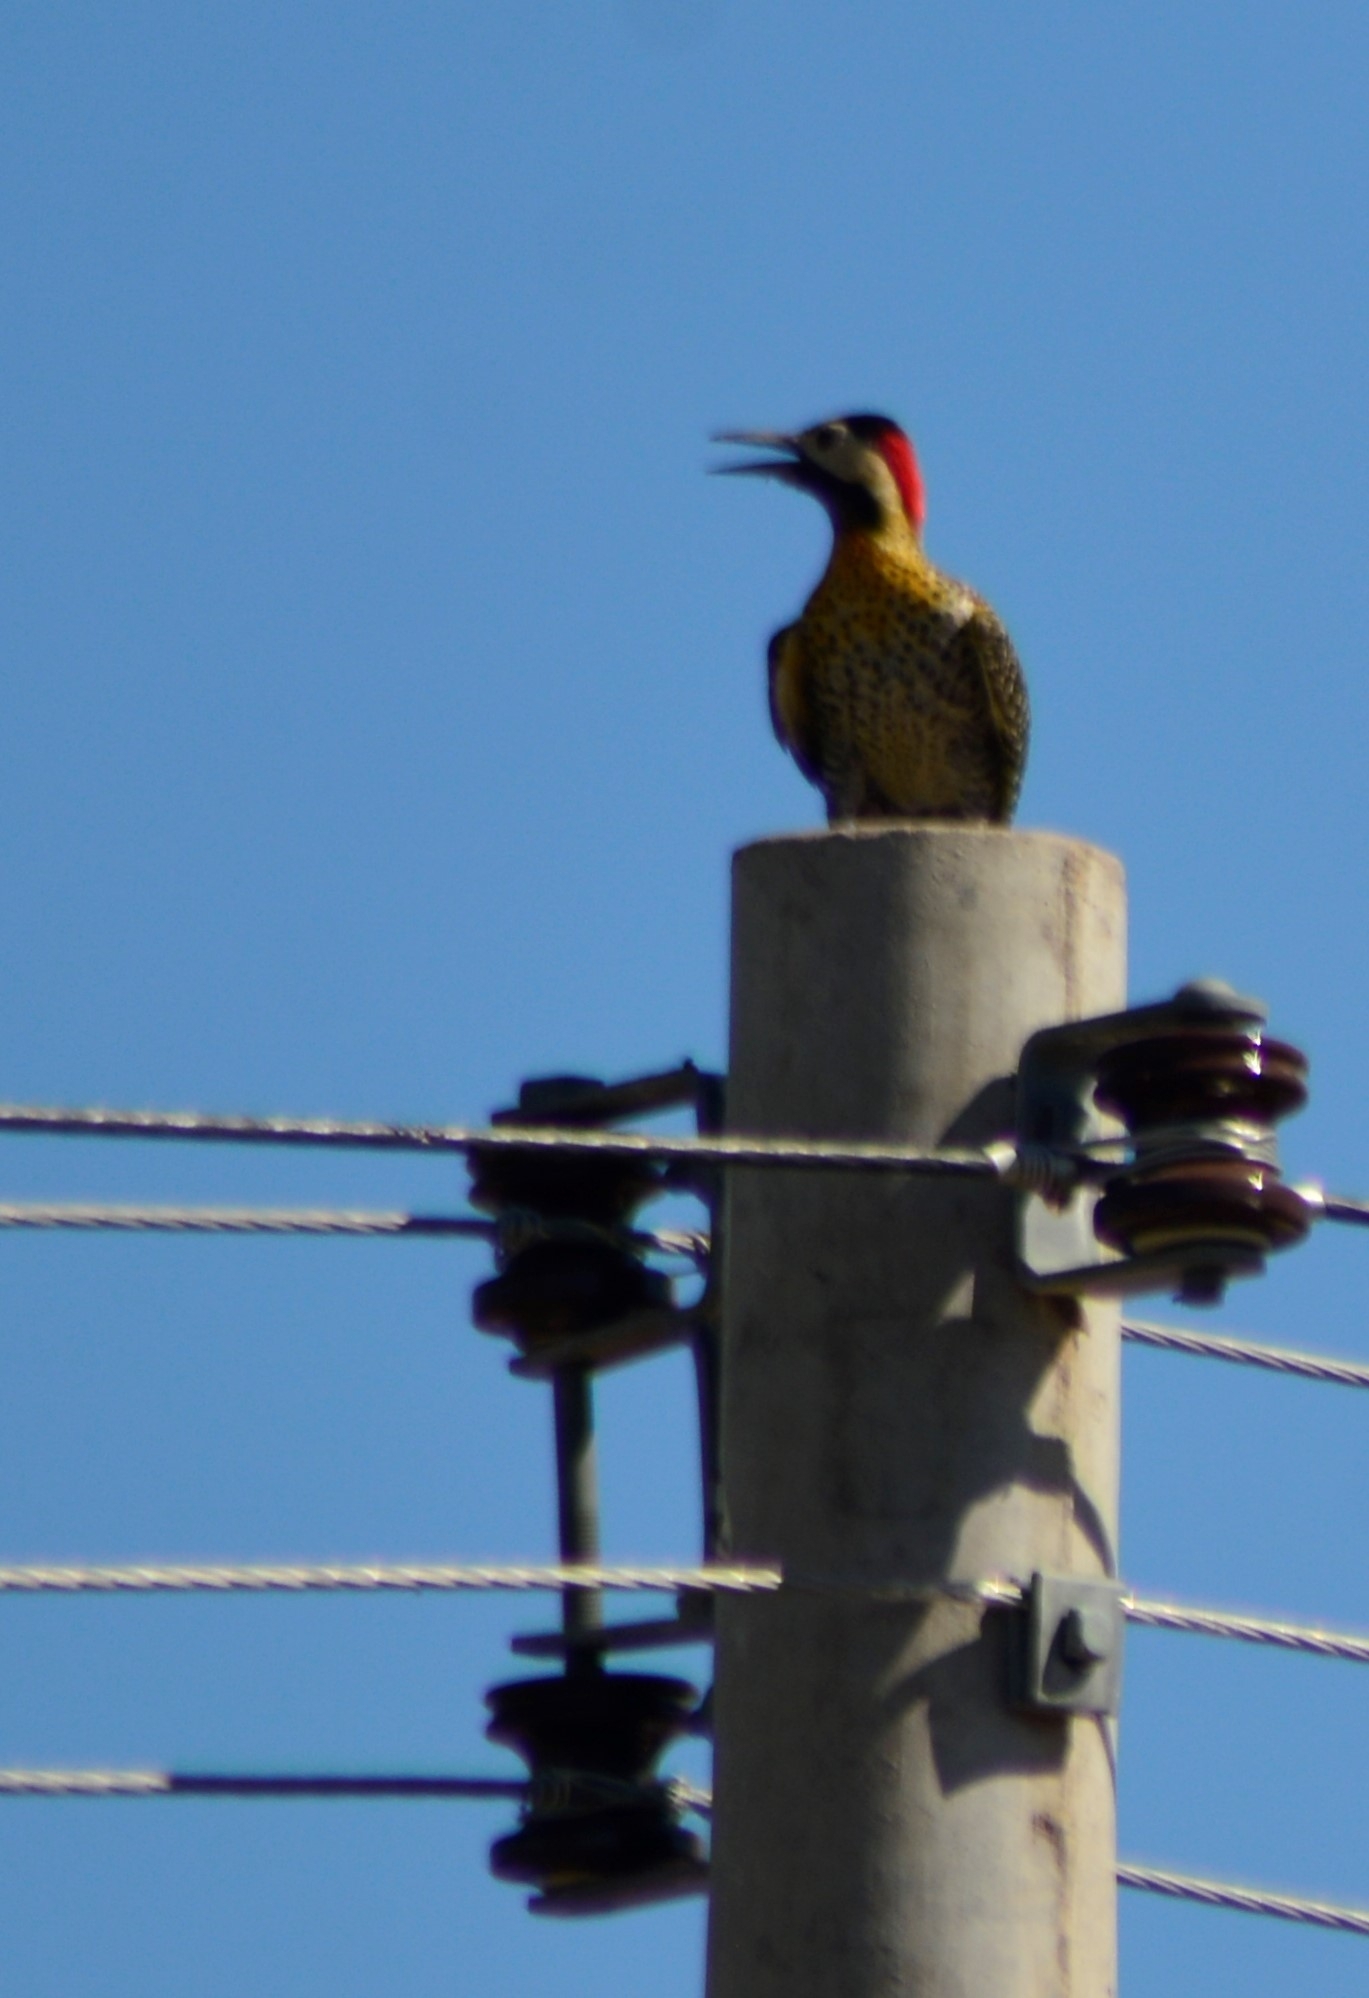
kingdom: Animalia
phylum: Chordata
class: Aves
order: Piciformes
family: Picidae
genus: Colaptes
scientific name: Colaptes melanochloros
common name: Green-barred woodpecker
